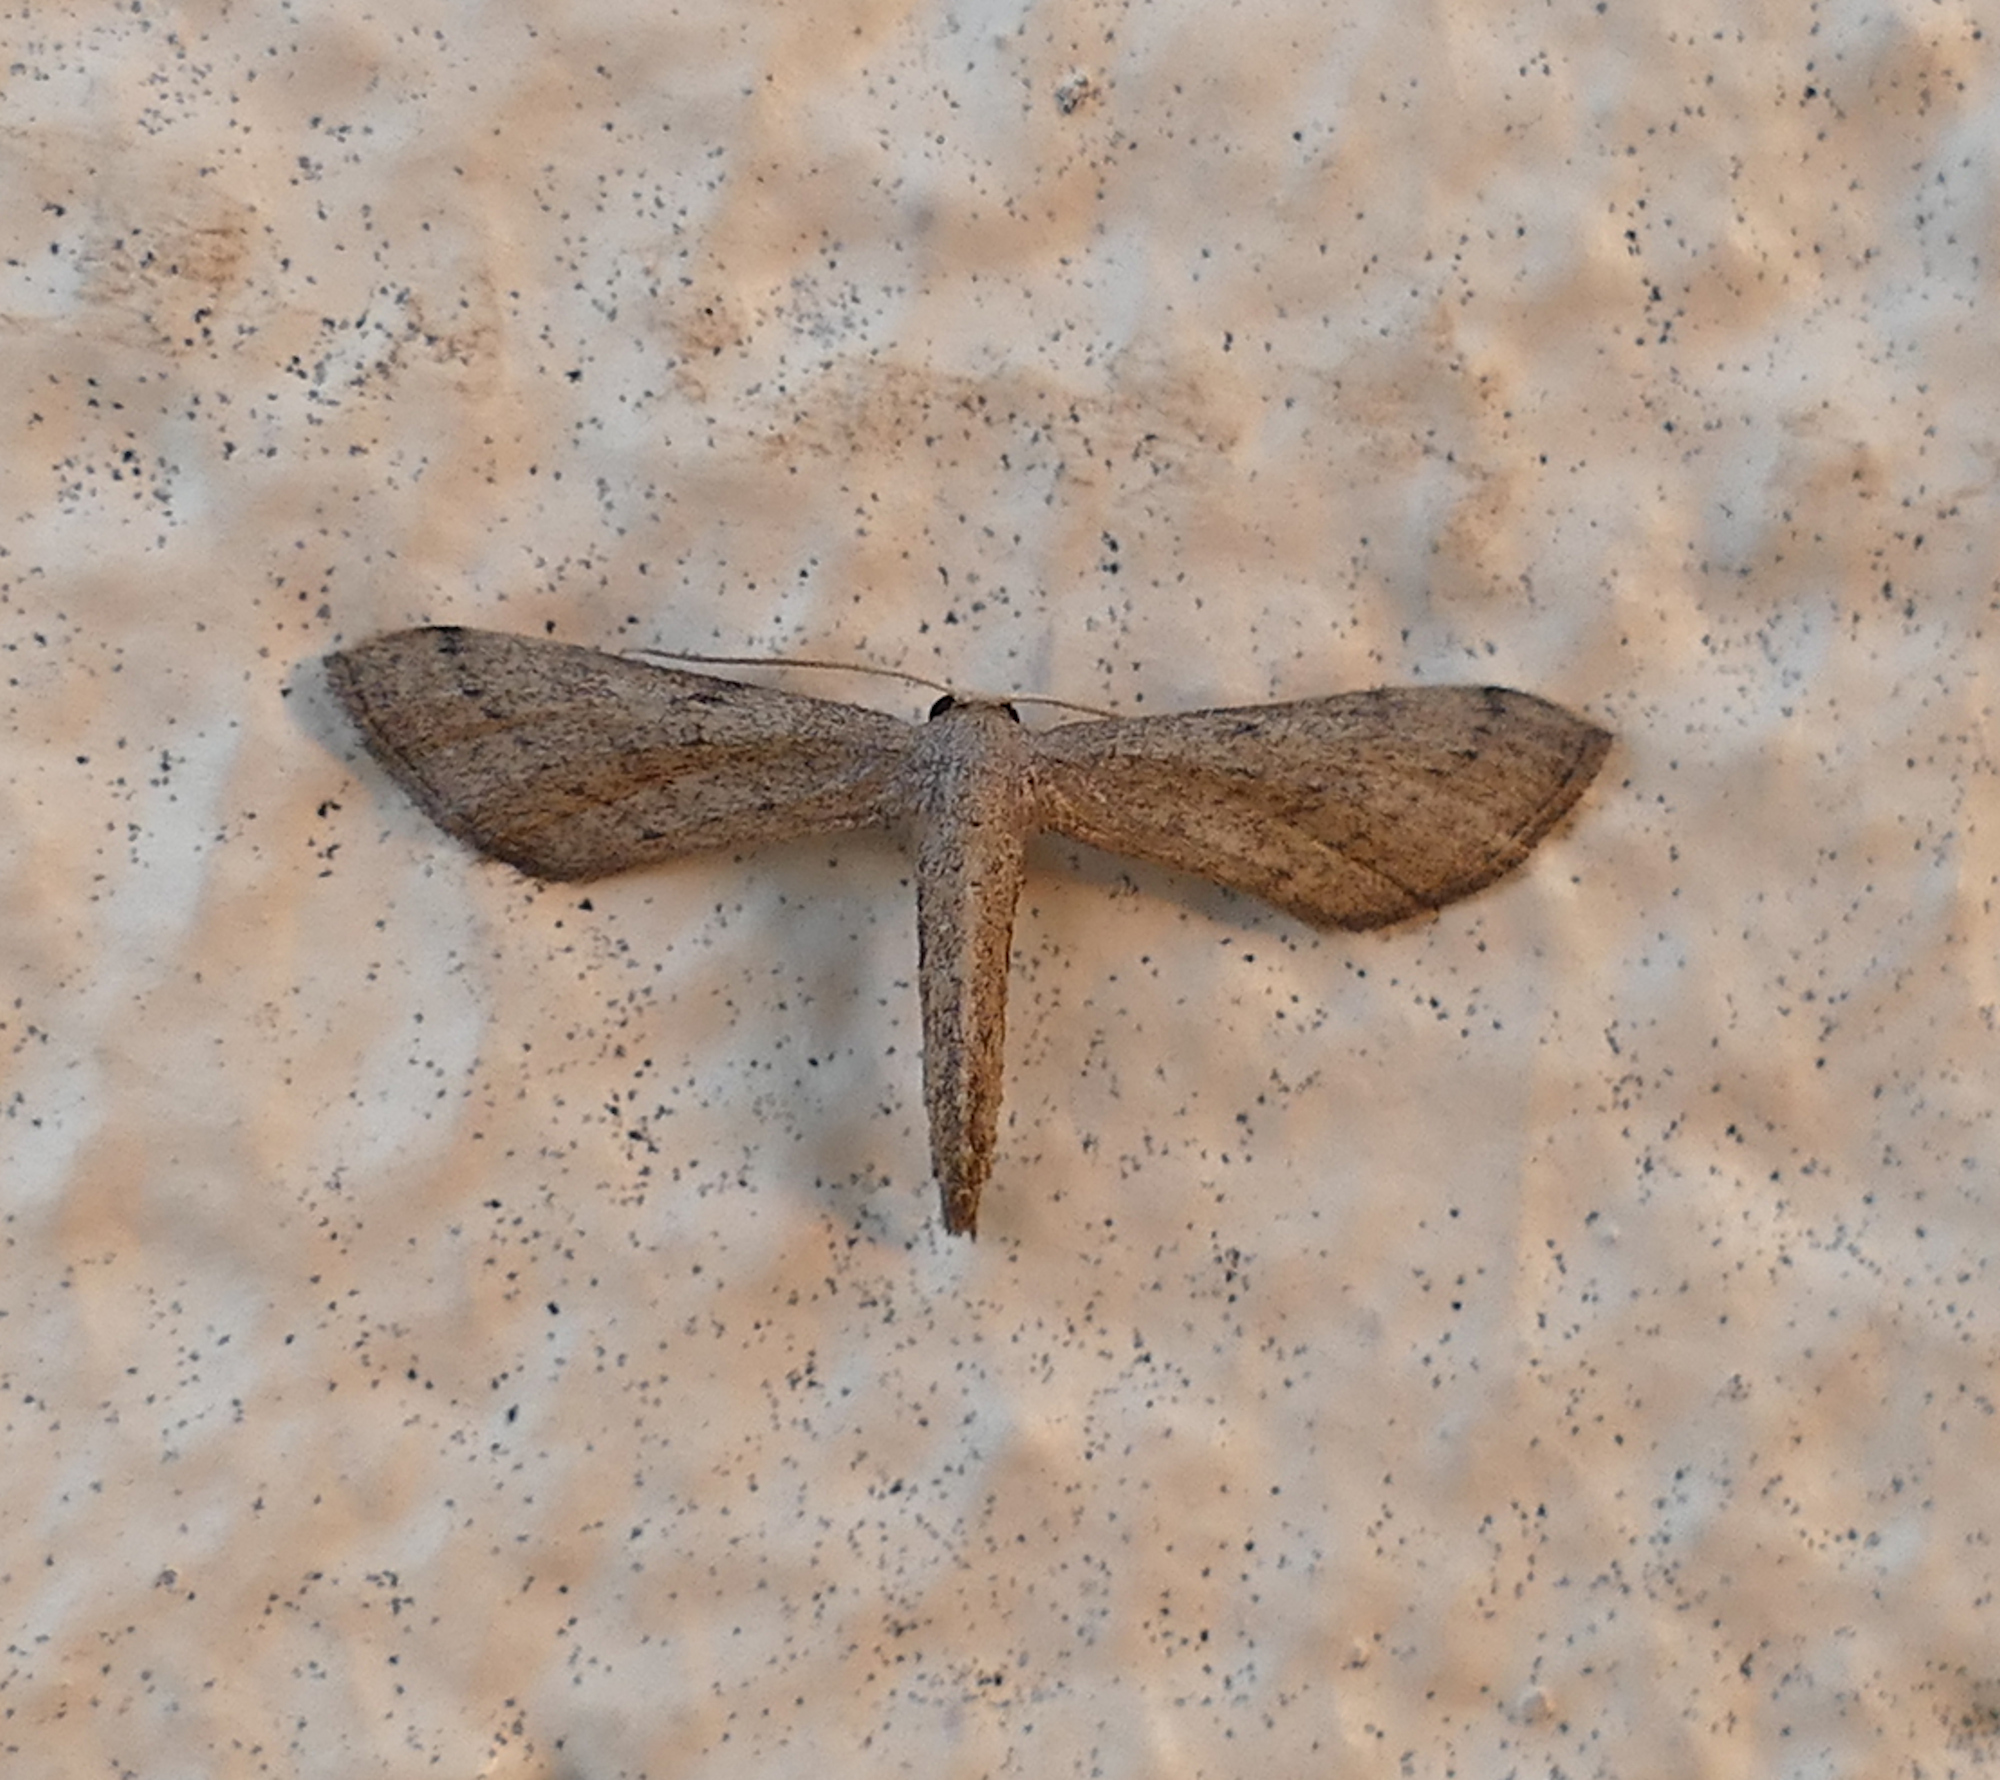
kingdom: Animalia
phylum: Arthropoda
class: Insecta
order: Lepidoptera
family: Geometridae
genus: Euacidalia
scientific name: Euacidalia sericearia
